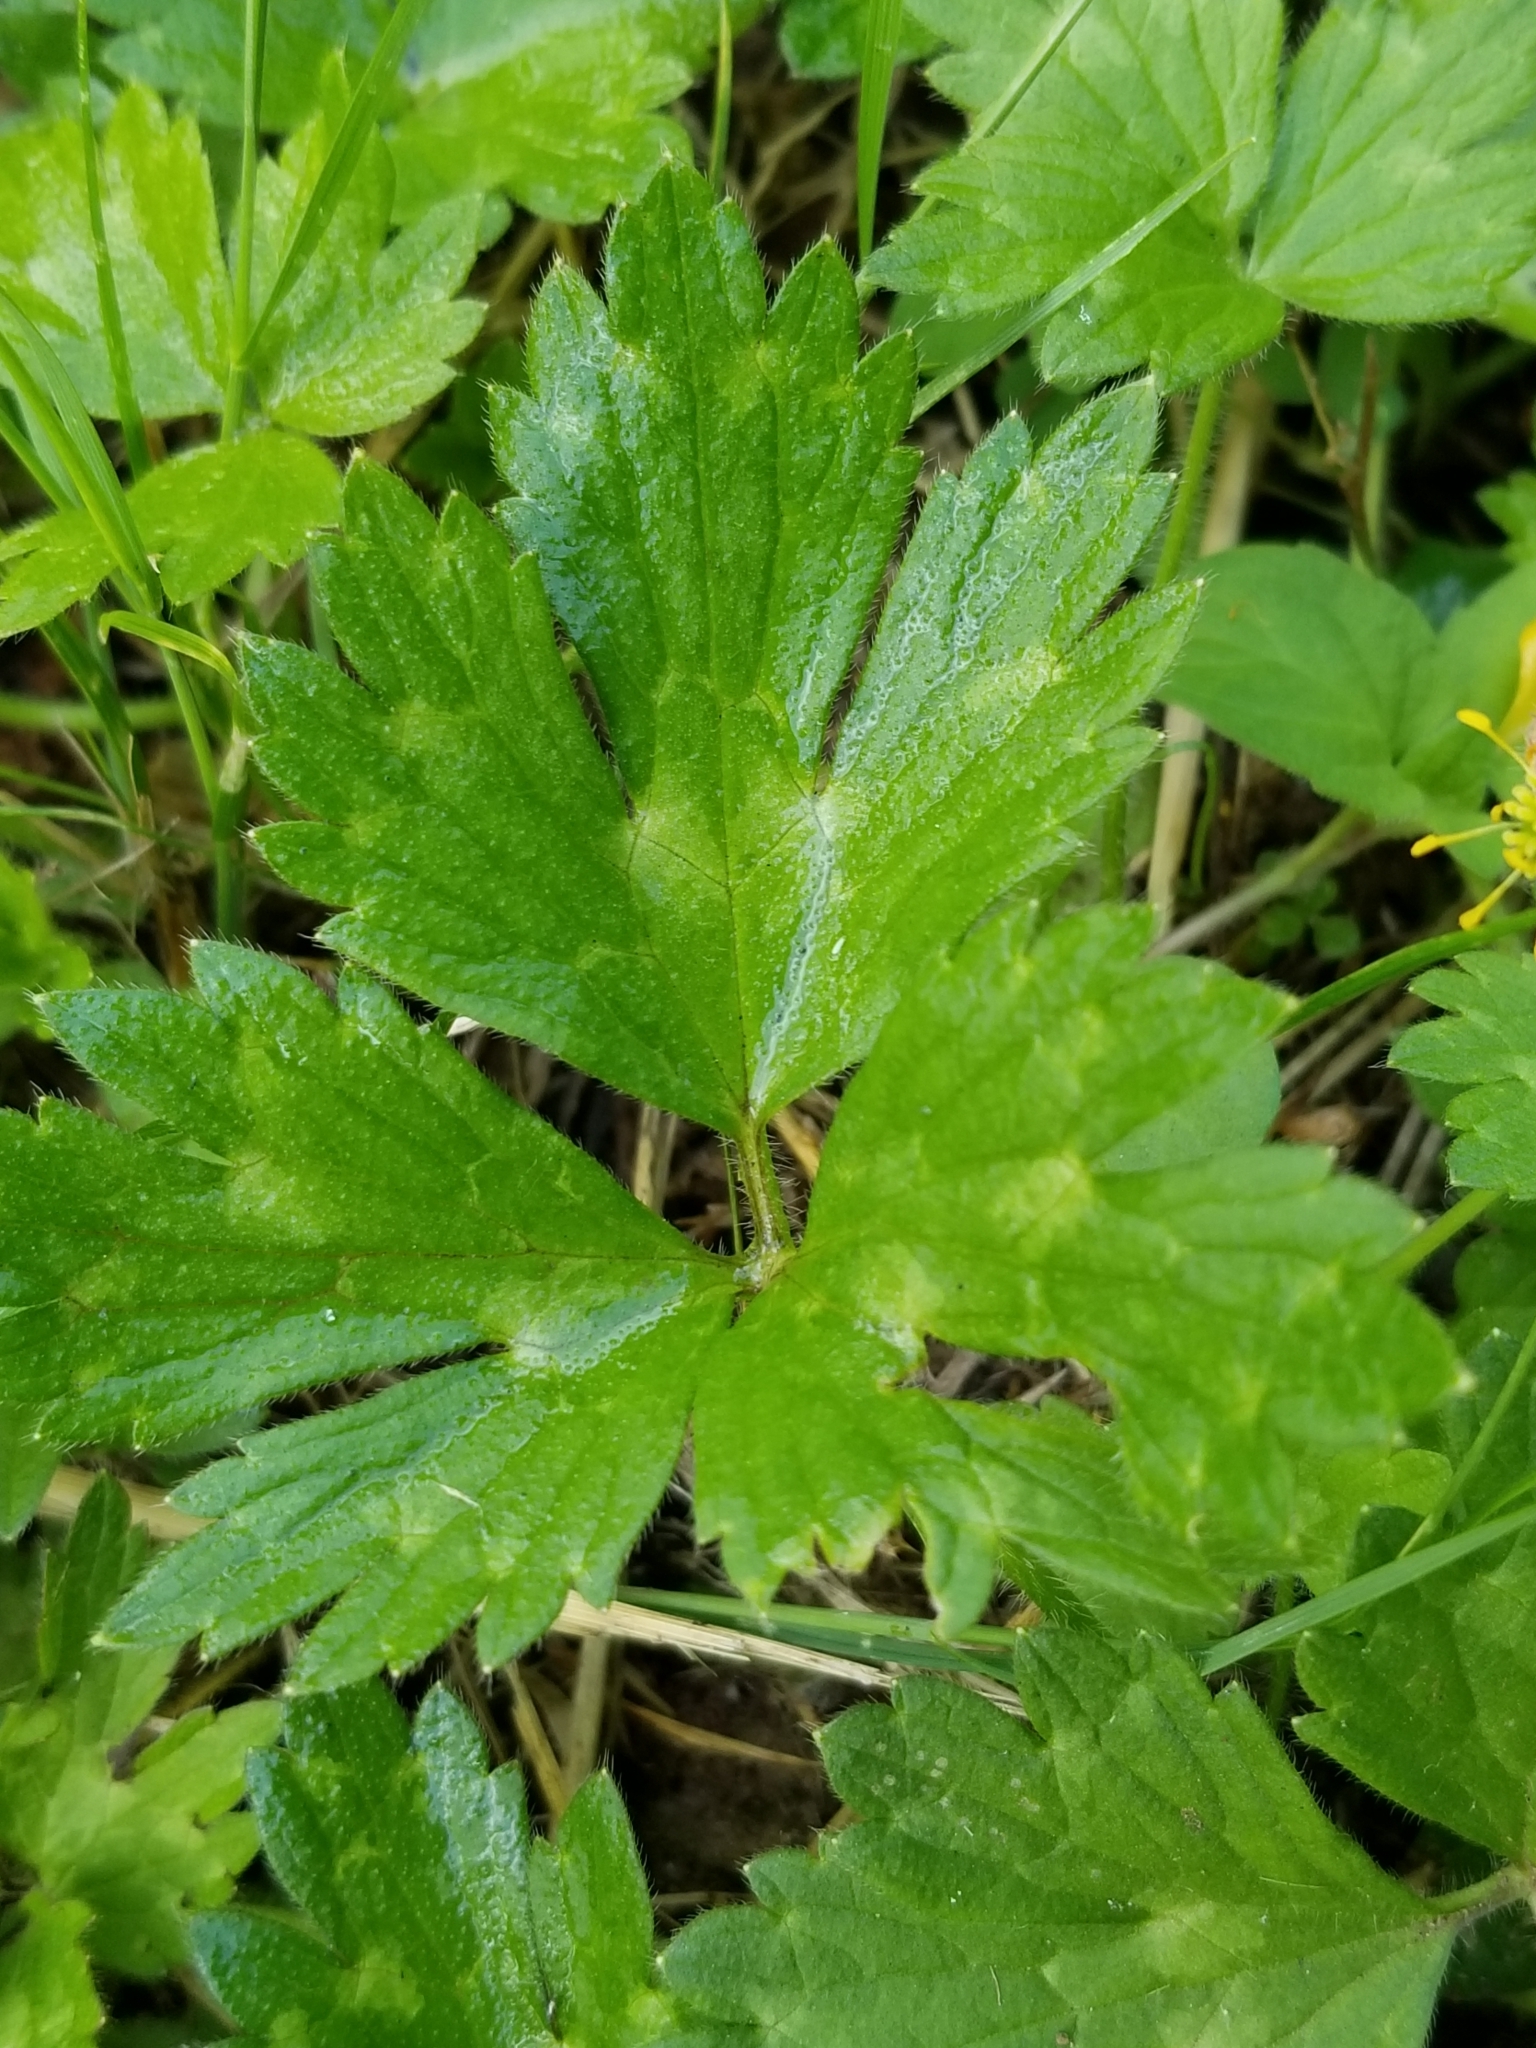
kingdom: Plantae
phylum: Tracheophyta
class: Magnoliopsida
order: Ranunculales
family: Ranunculaceae
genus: Ranunculus
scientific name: Ranunculus repens
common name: Creeping buttercup
